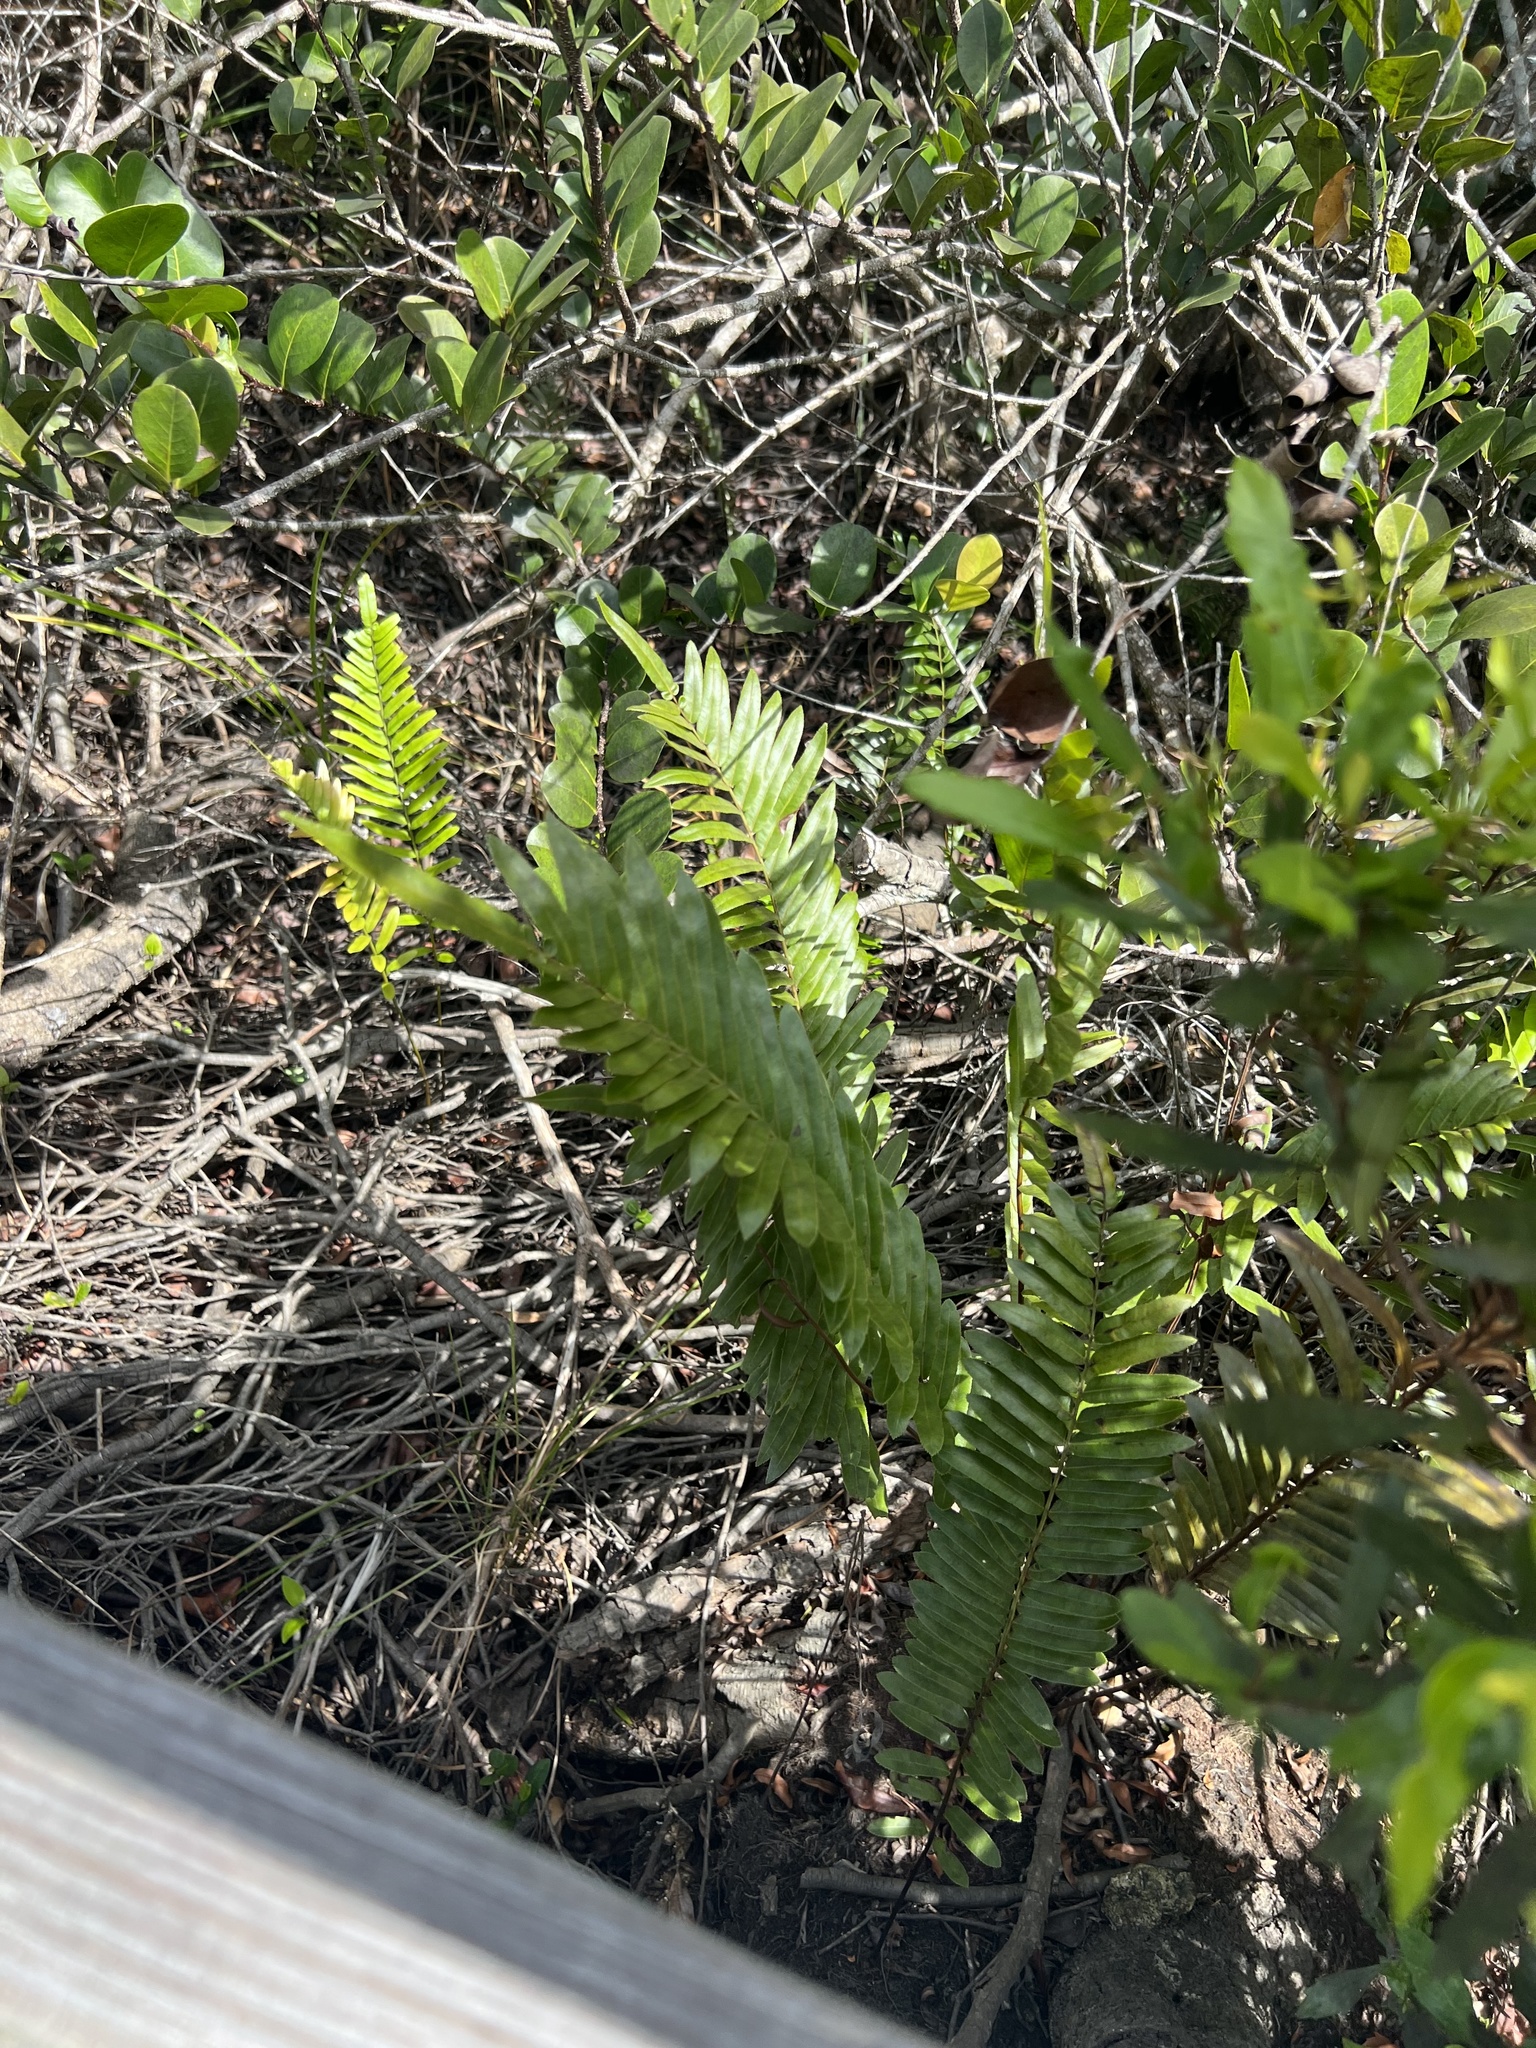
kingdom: Plantae
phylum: Tracheophyta
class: Polypodiopsida
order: Polypodiales
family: Blechnaceae
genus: Telmatoblechnum
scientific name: Telmatoblechnum serrulatum
